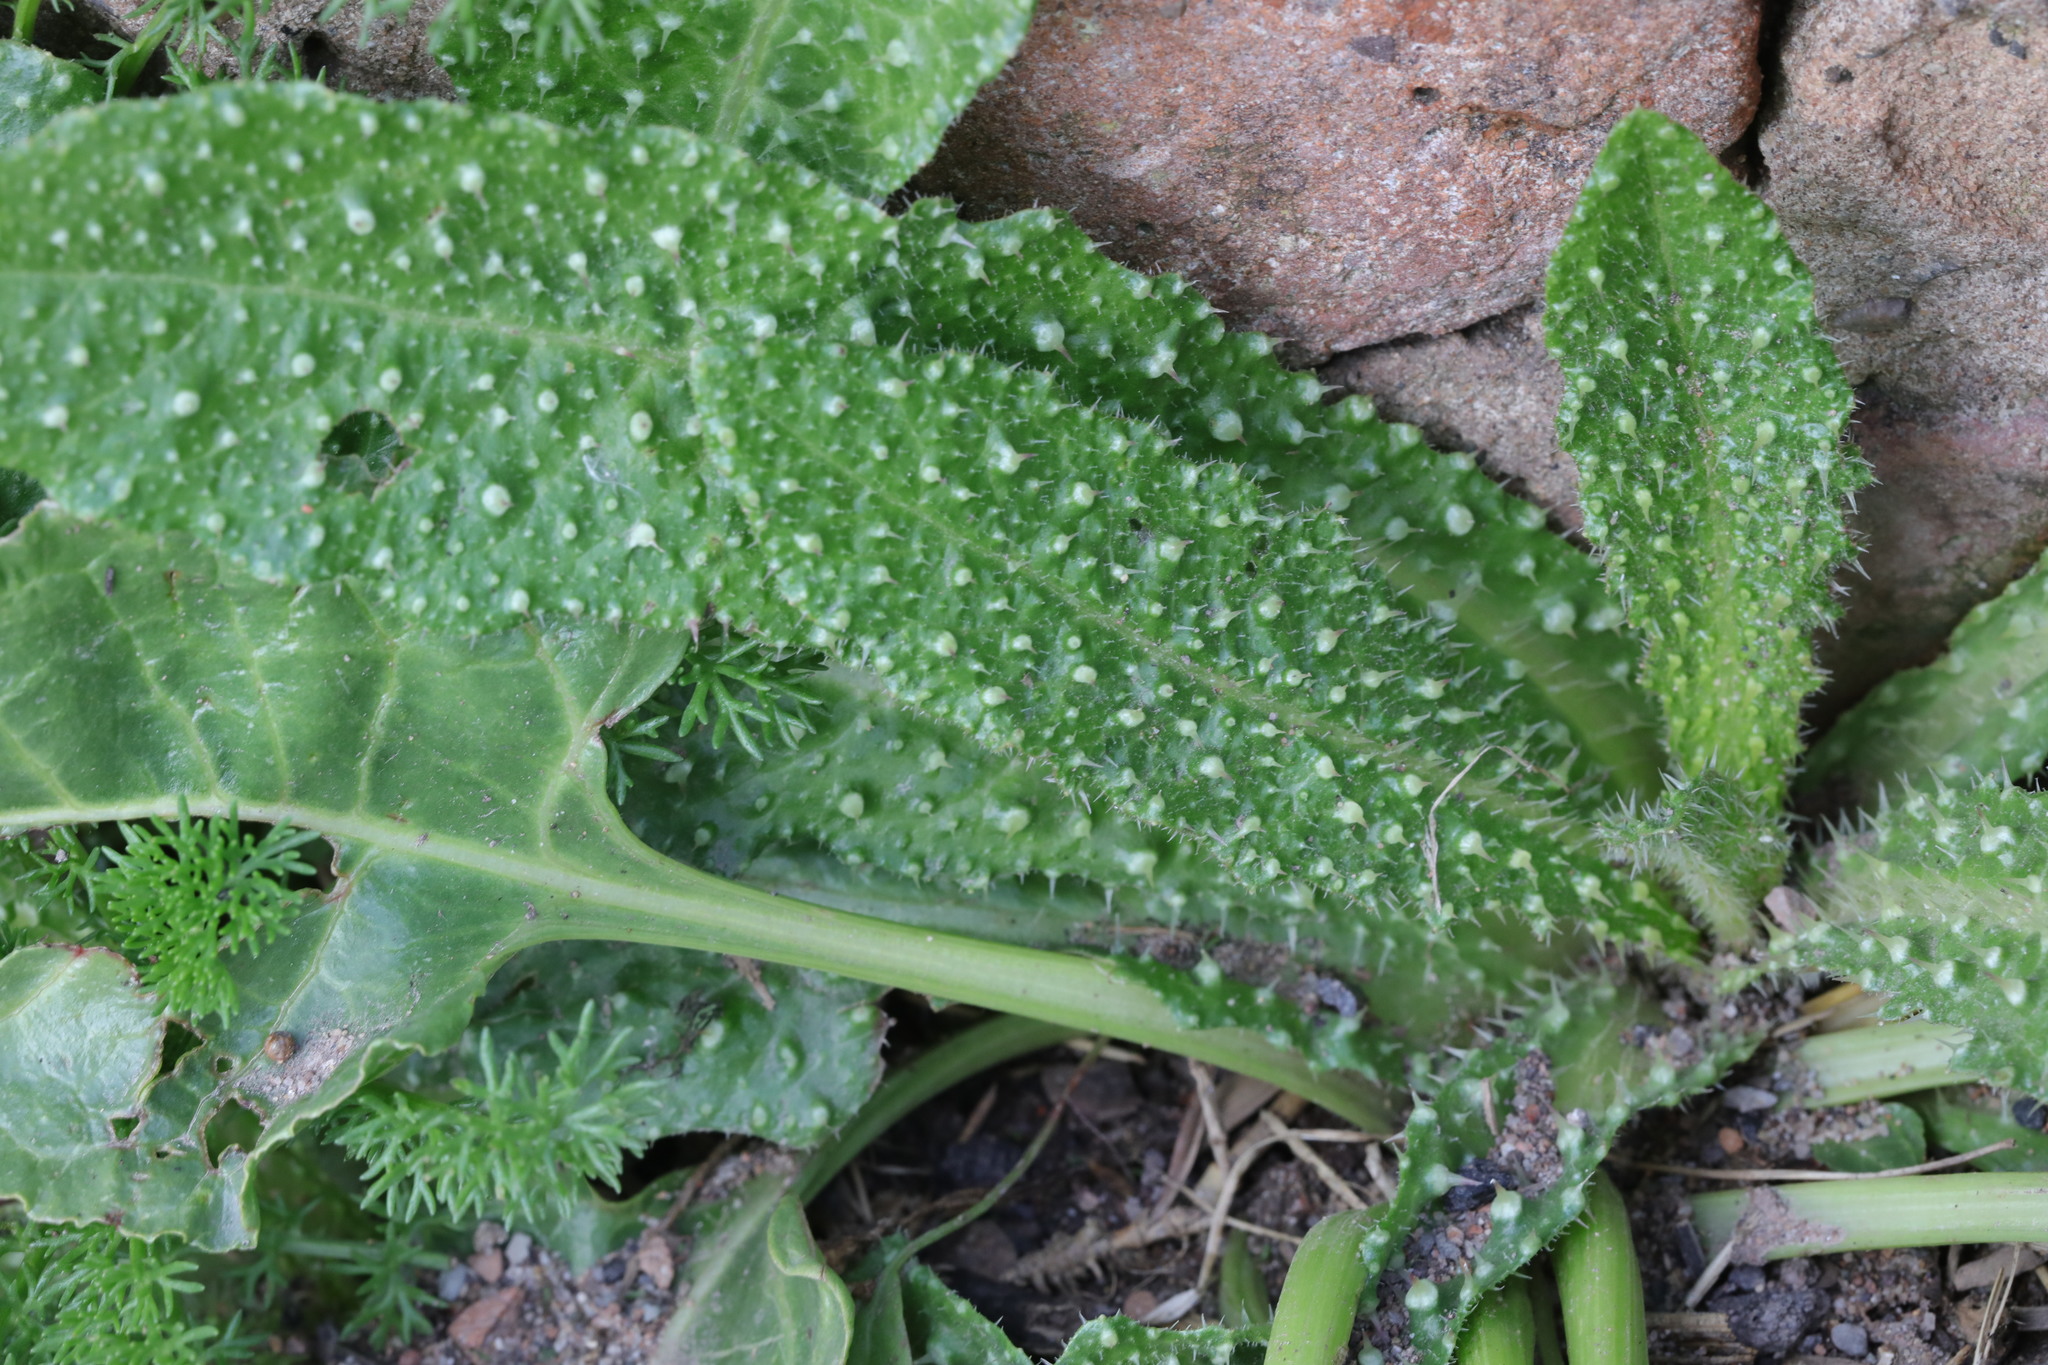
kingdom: Plantae
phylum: Tracheophyta
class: Magnoliopsida
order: Asterales
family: Asteraceae
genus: Helminthotheca
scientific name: Helminthotheca echioides
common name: Ox-tongue
